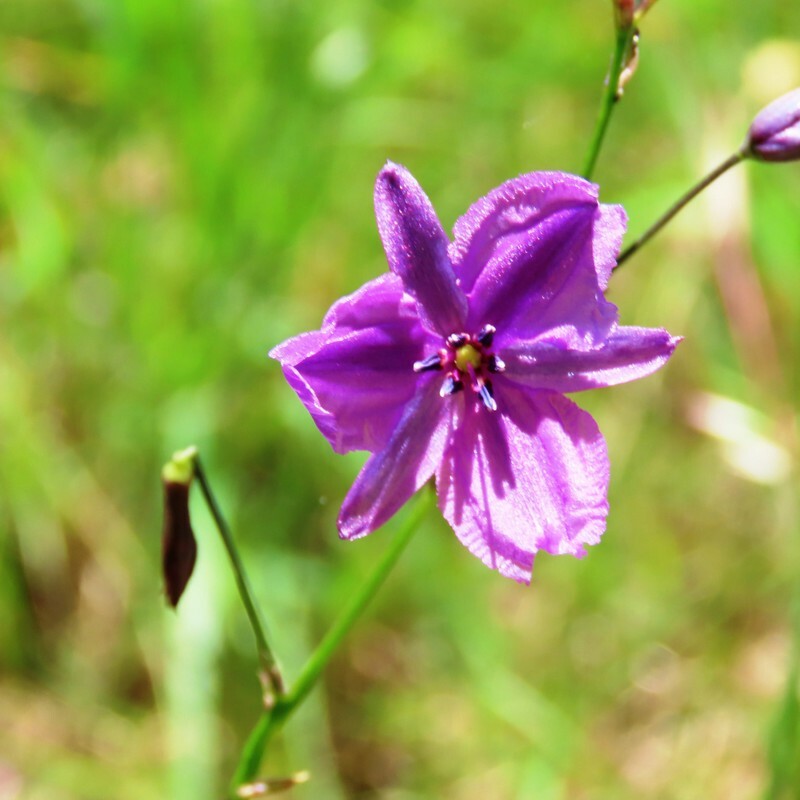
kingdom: Plantae
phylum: Tracheophyta
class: Liliopsida
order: Asparagales
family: Asparagaceae
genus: Arthropodium
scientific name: Arthropodium strictum
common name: Chocolate-lily
